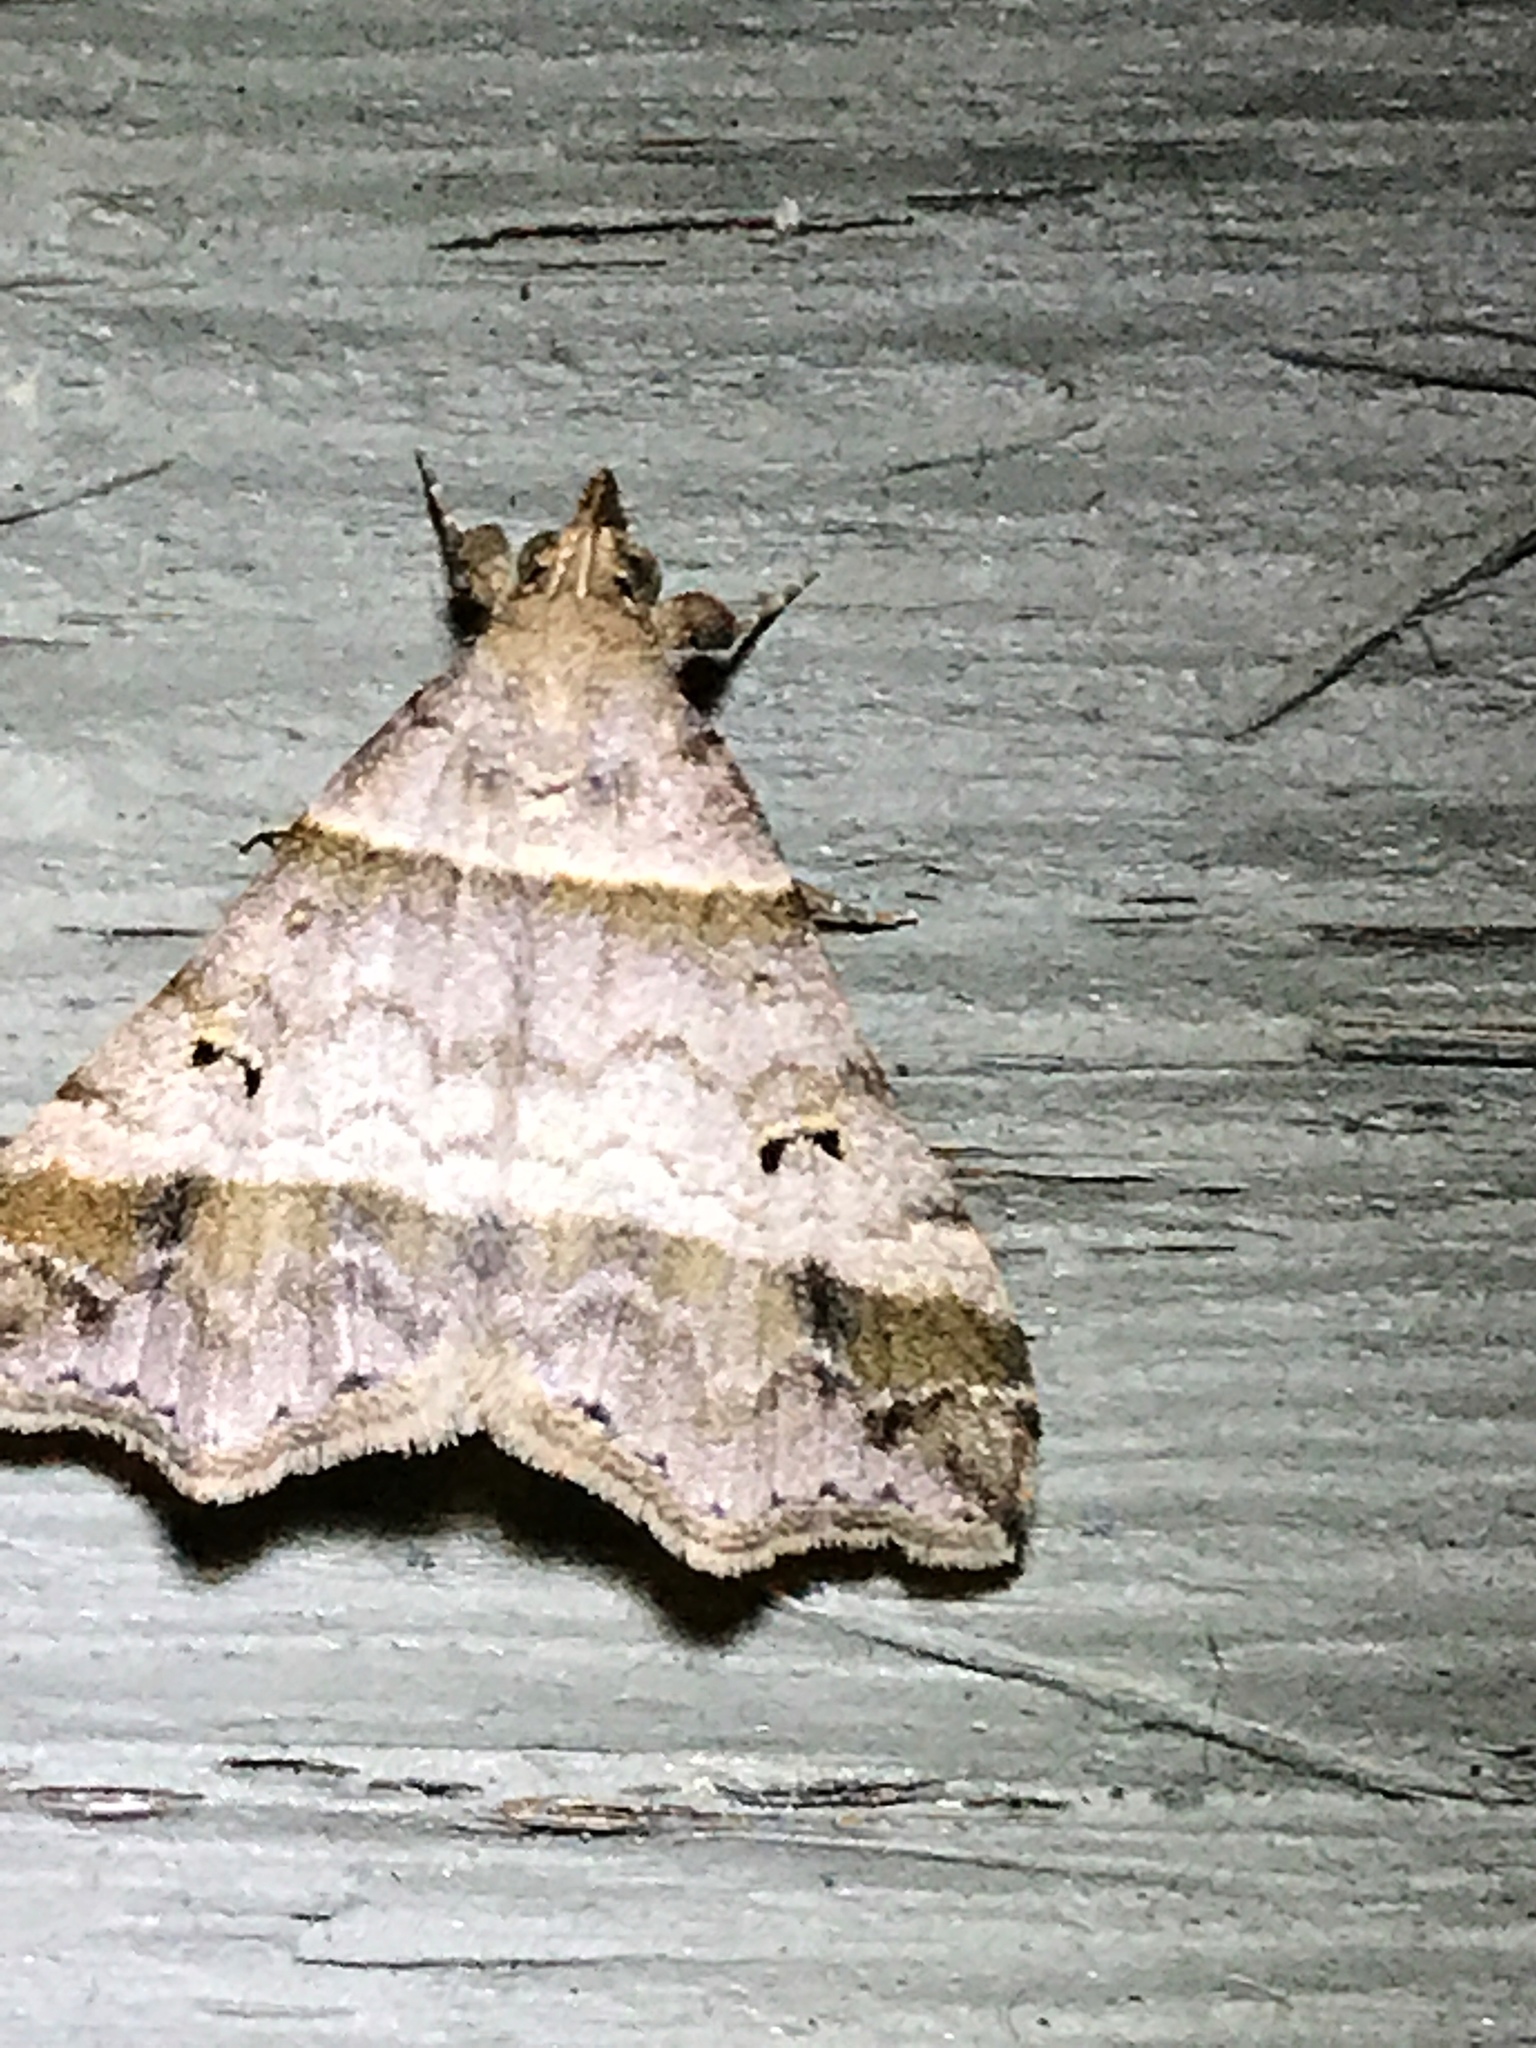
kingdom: Animalia
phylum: Arthropoda
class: Insecta
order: Lepidoptera
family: Erebidae
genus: Phaeolita
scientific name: Phaeolita pyramusalis
